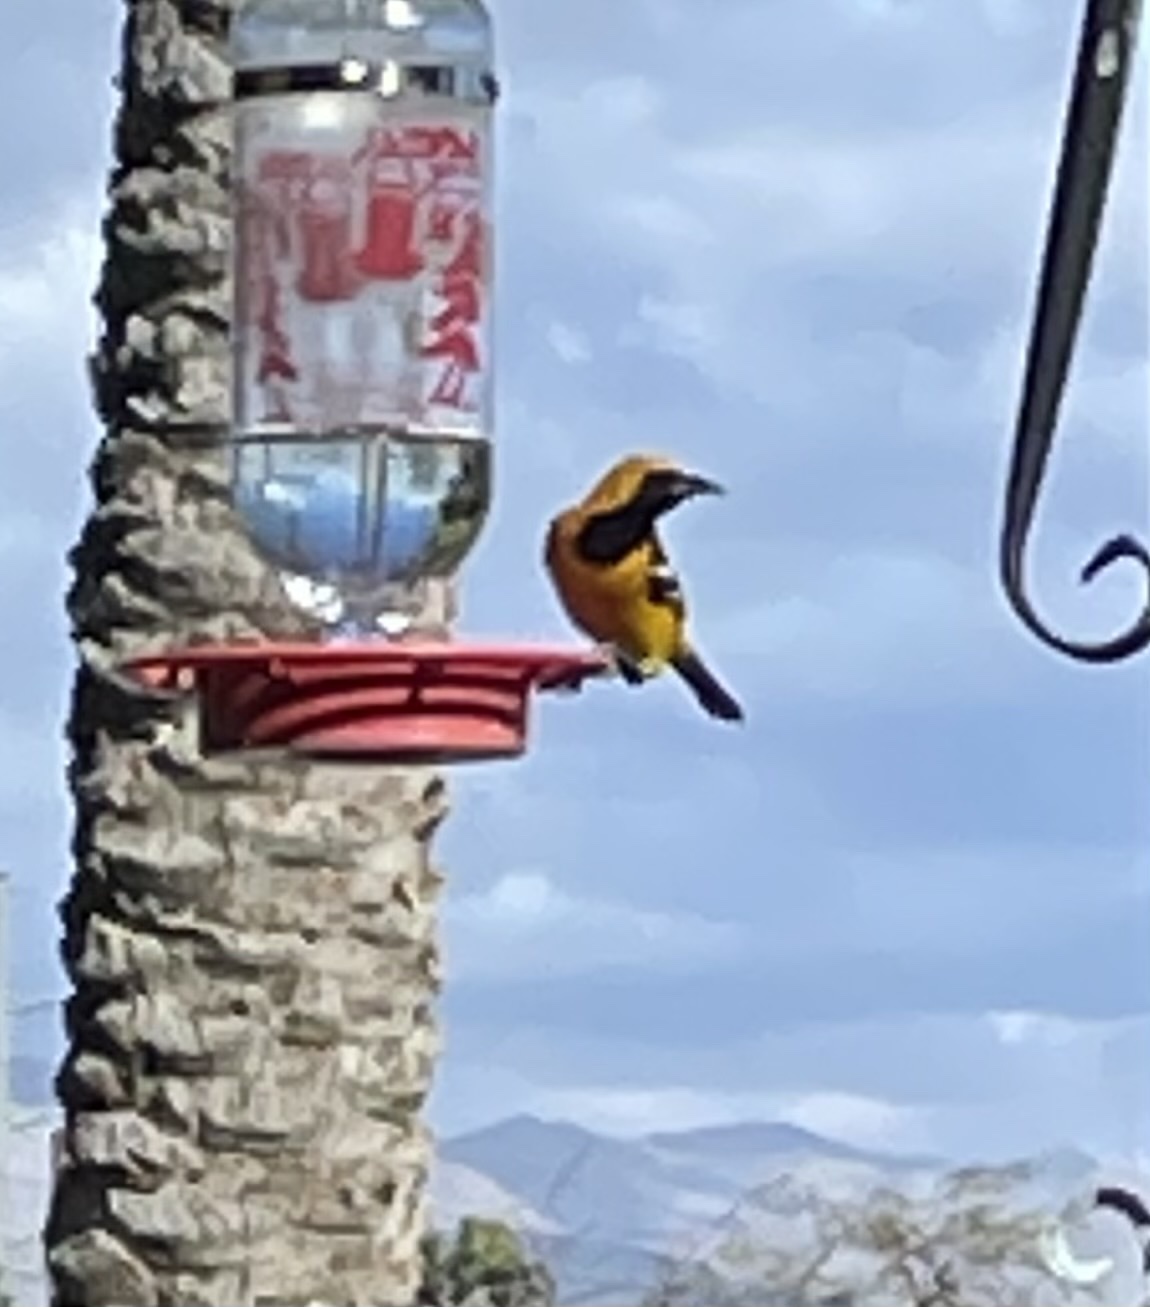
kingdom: Animalia
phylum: Chordata
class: Aves
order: Passeriformes
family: Icteridae
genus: Icterus
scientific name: Icterus cucullatus
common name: Hooded oriole
